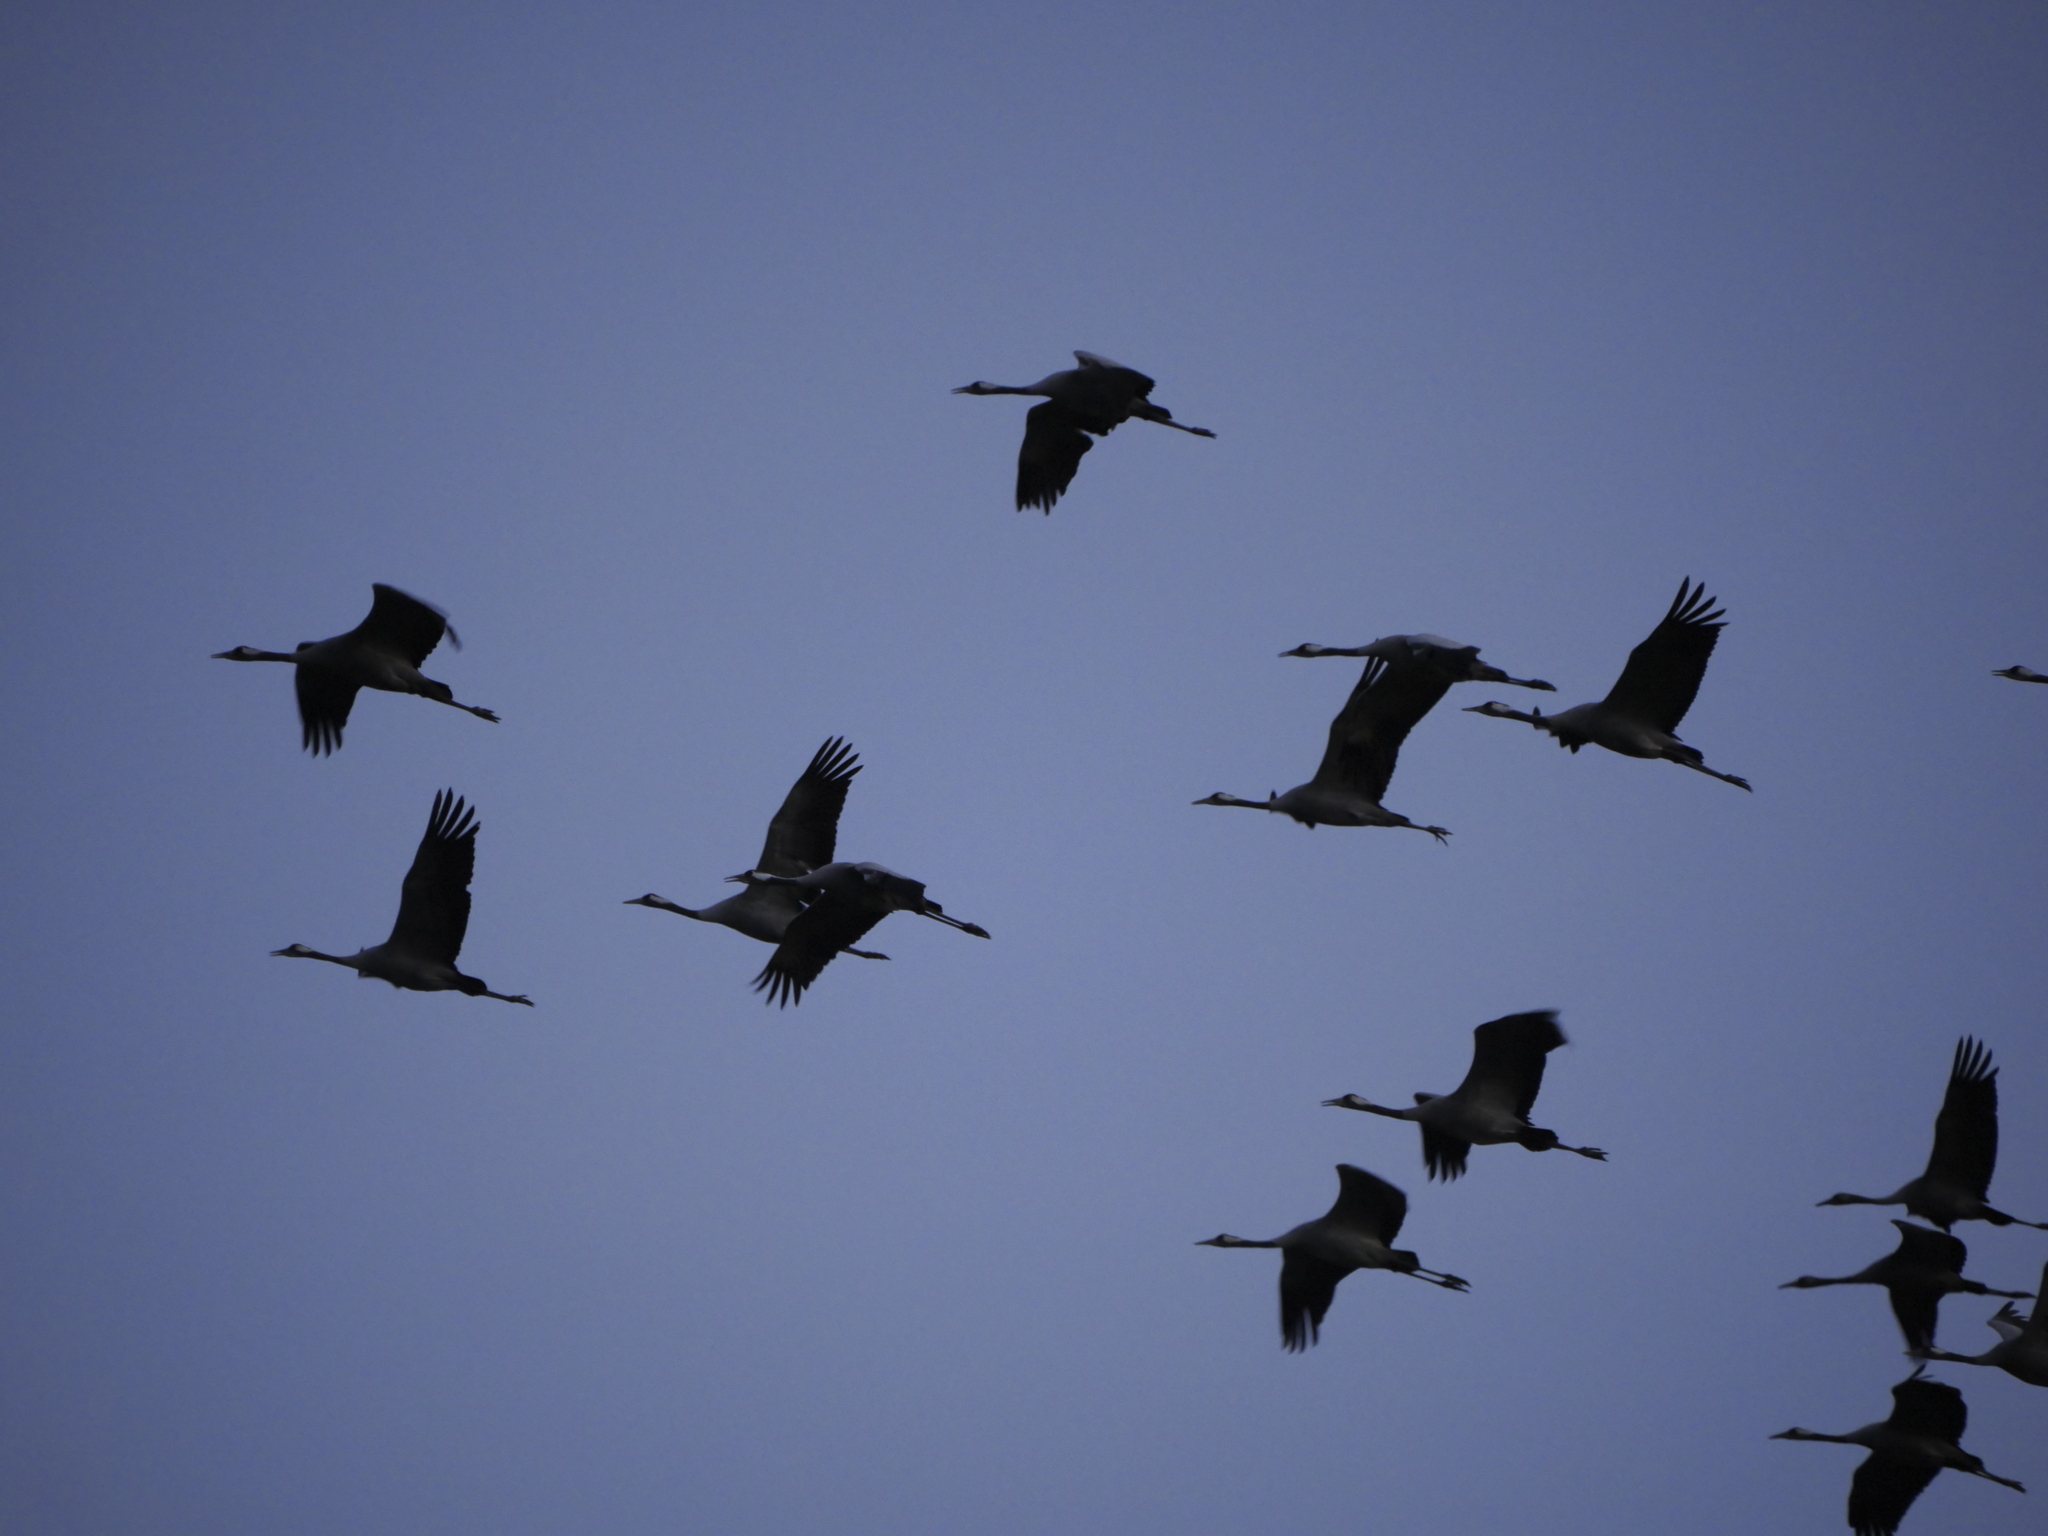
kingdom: Animalia
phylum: Chordata
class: Aves
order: Gruiformes
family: Gruidae
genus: Grus
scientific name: Grus grus
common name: Common crane
